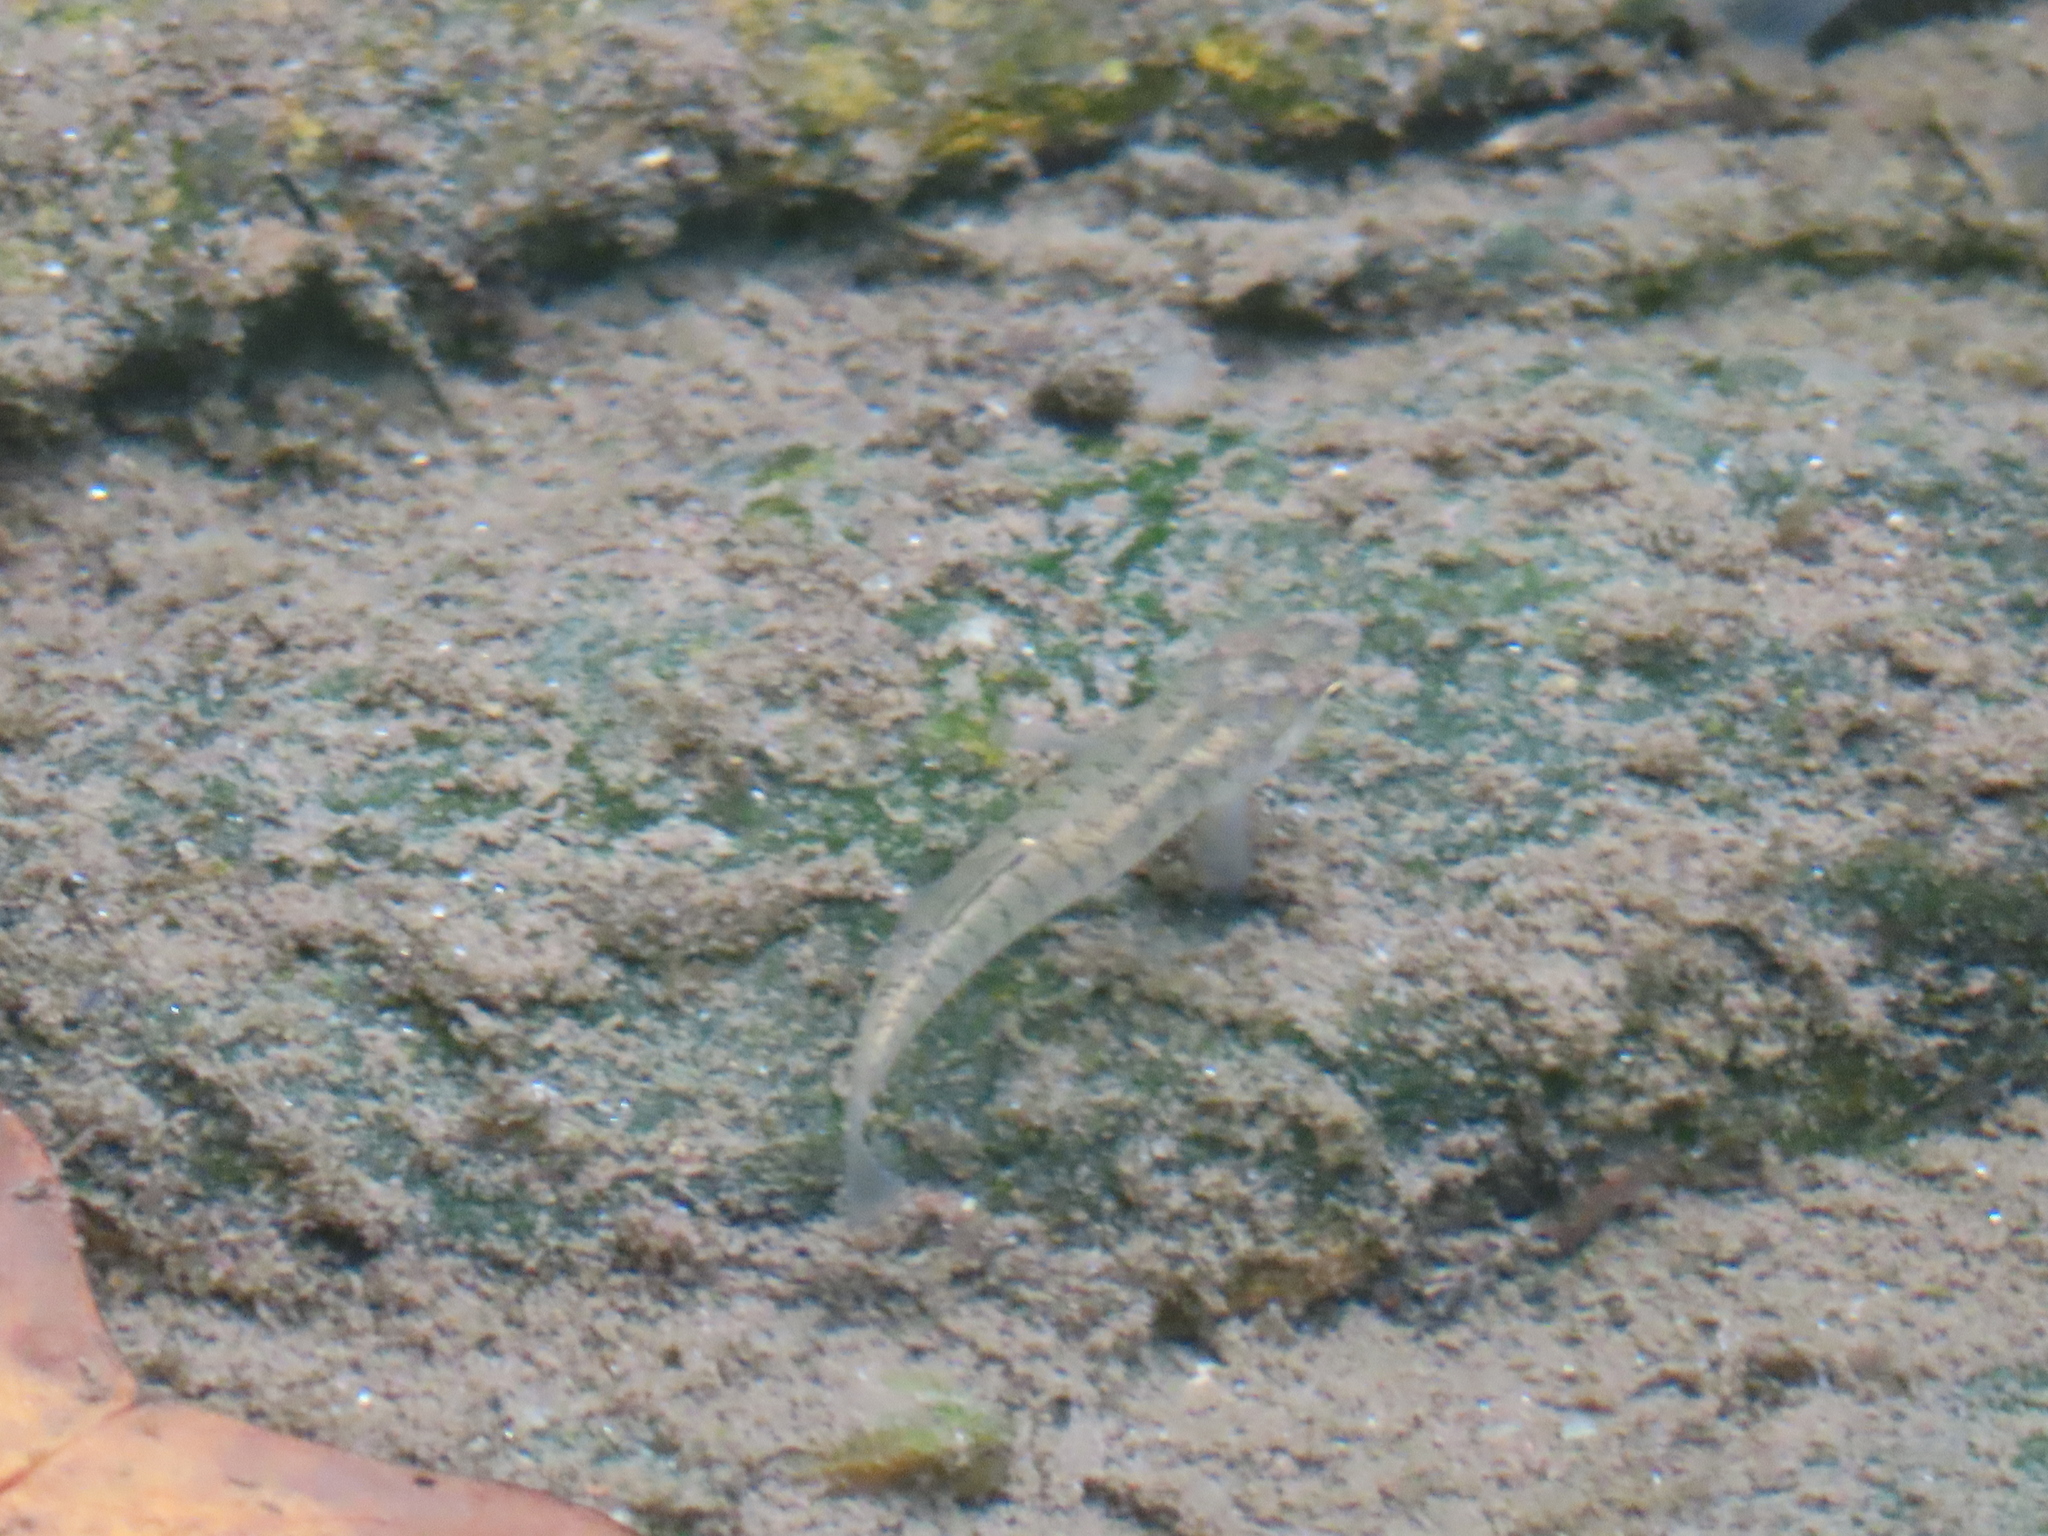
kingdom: Animalia
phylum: Chordata
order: Cyprinodontiformes
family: Fundulidae
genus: Fundulus
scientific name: Fundulus diaphanus
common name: Banded killifish
